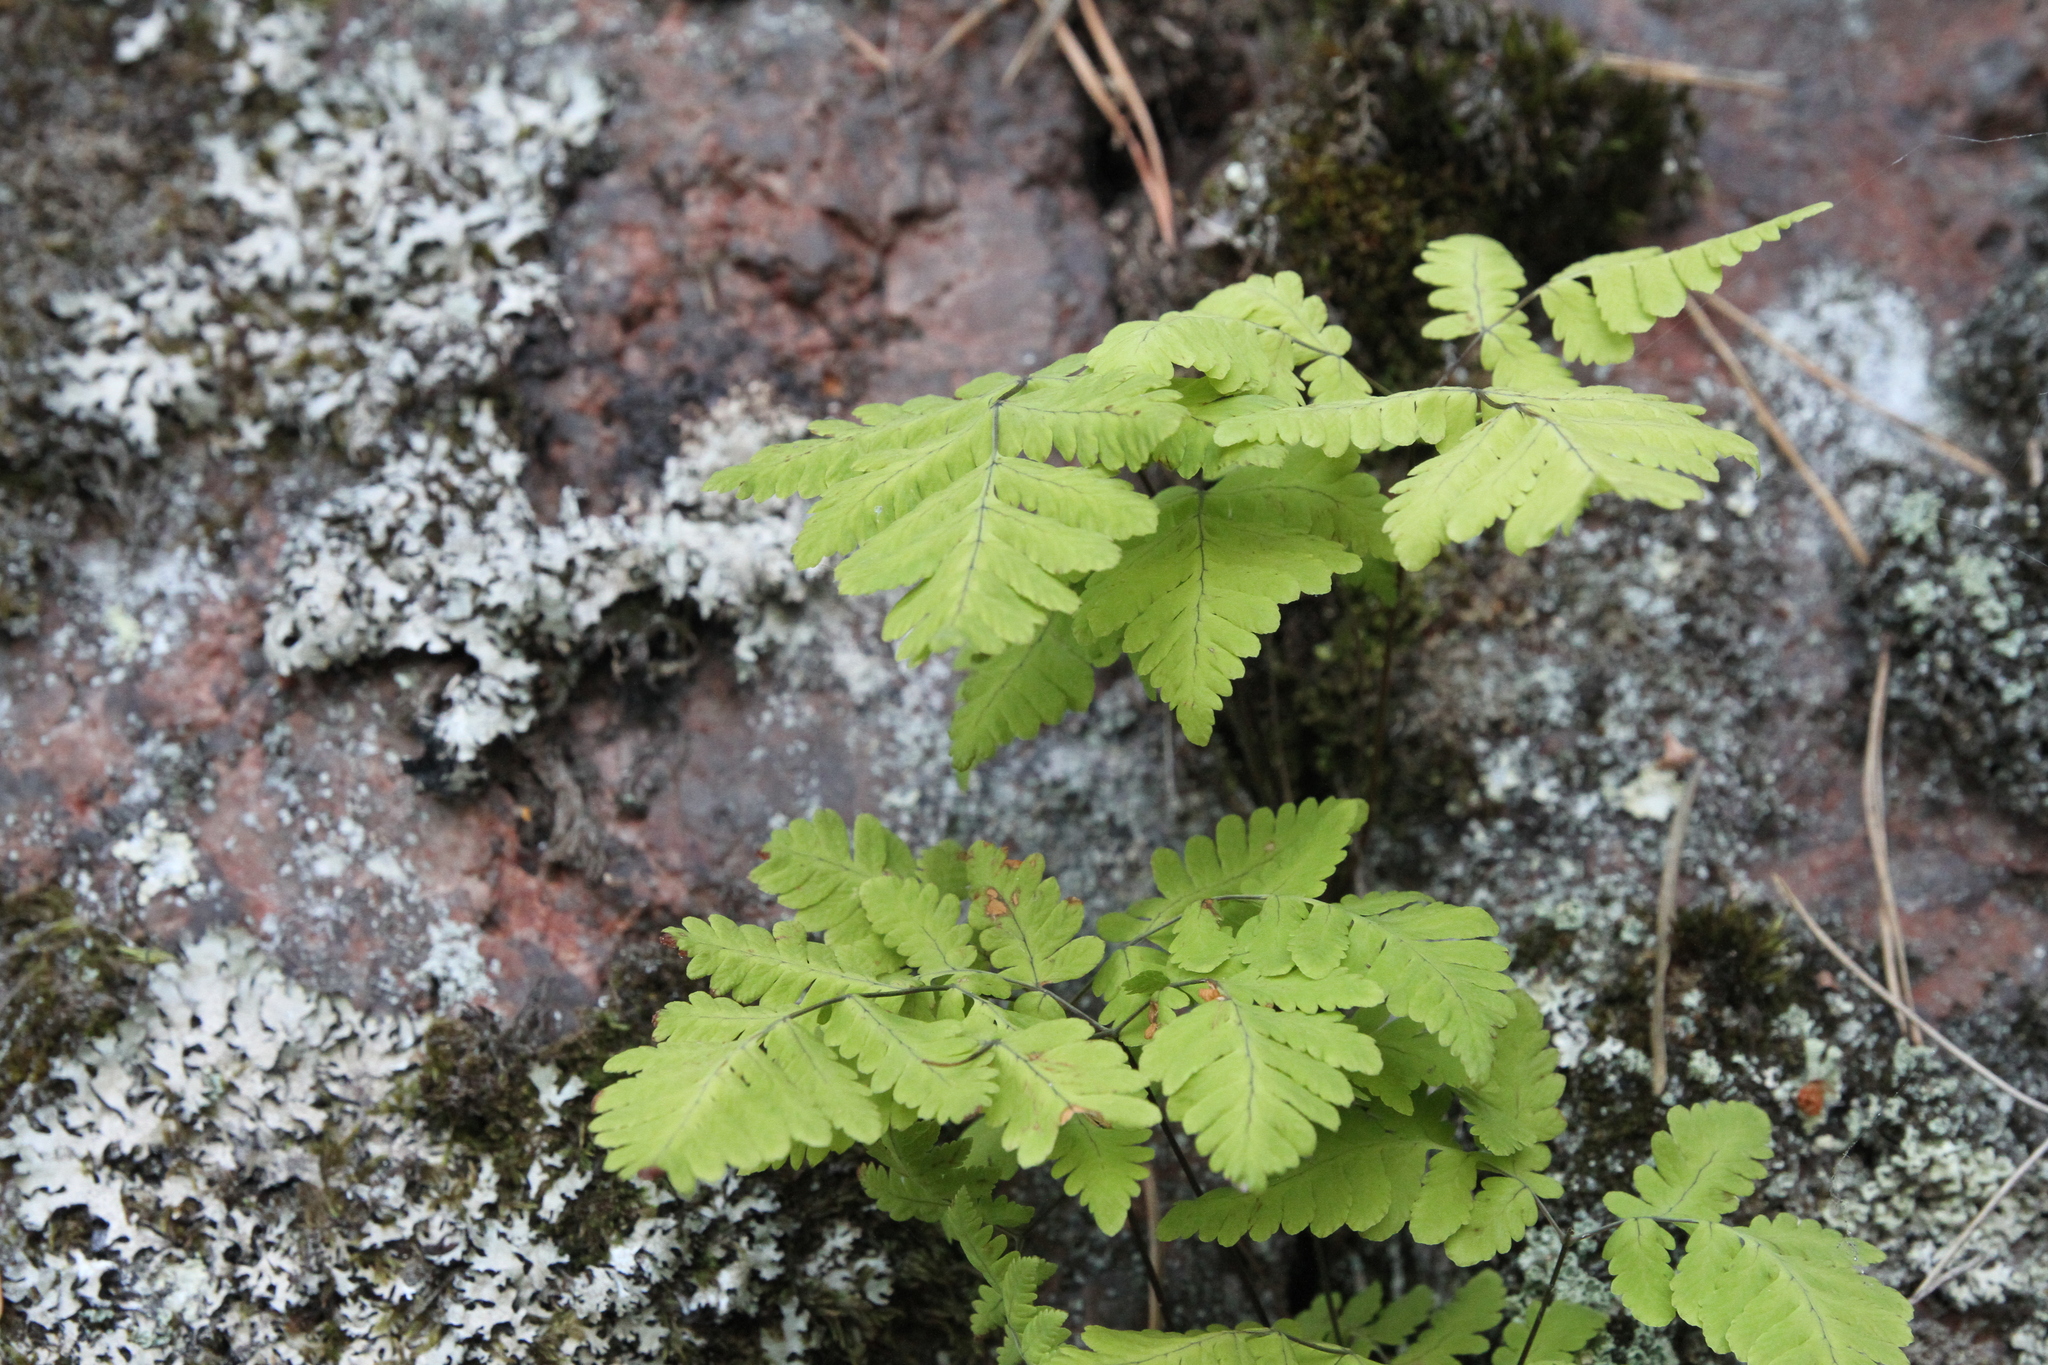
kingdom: Plantae
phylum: Tracheophyta
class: Polypodiopsida
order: Polypodiales
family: Cystopteridaceae
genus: Gymnocarpium
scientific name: Gymnocarpium dryopteris
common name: Oak fern
